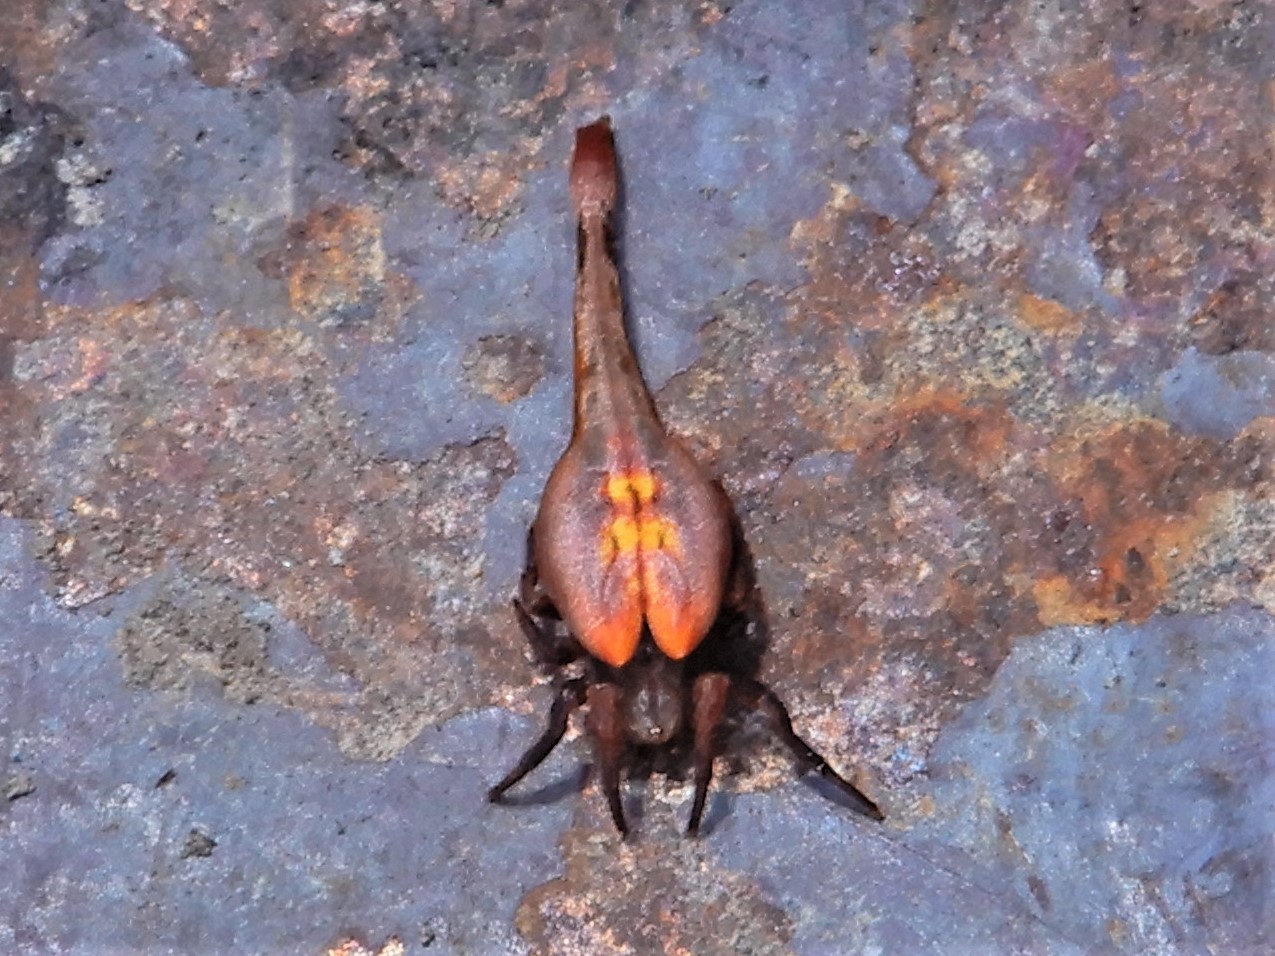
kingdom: Animalia
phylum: Arthropoda
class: Arachnida
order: Araneae
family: Araneidae
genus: Arachnura
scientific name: Arachnura feredayi
